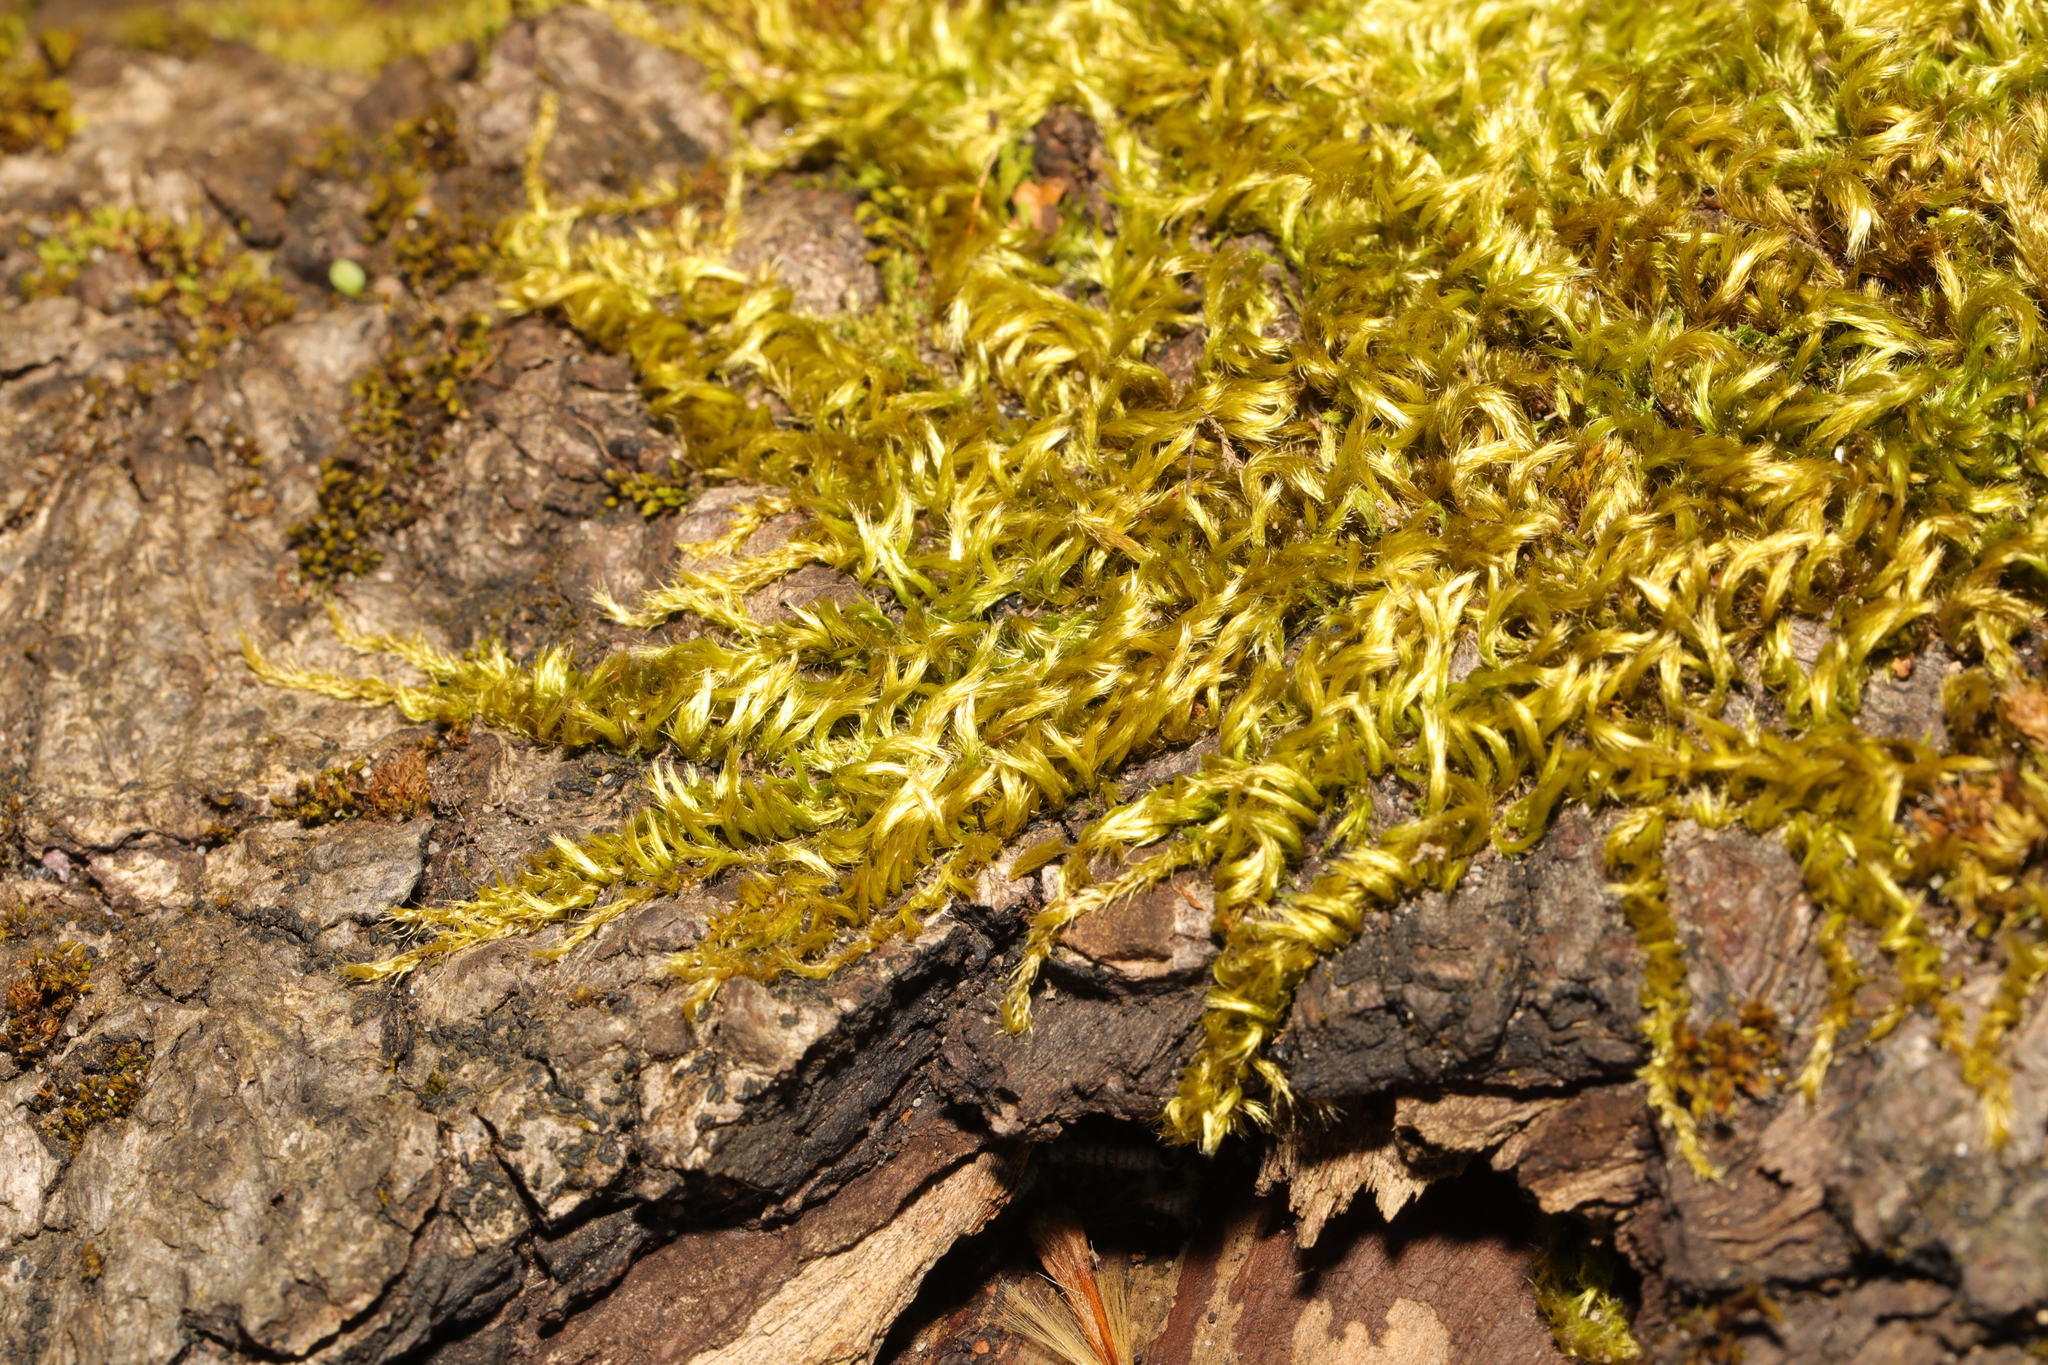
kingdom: Plantae
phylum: Bryophyta
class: Bryopsida
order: Hypnales
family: Brachytheciaceae
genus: Homalothecium
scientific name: Homalothecium sericeum
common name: Silky wall feather-moss
